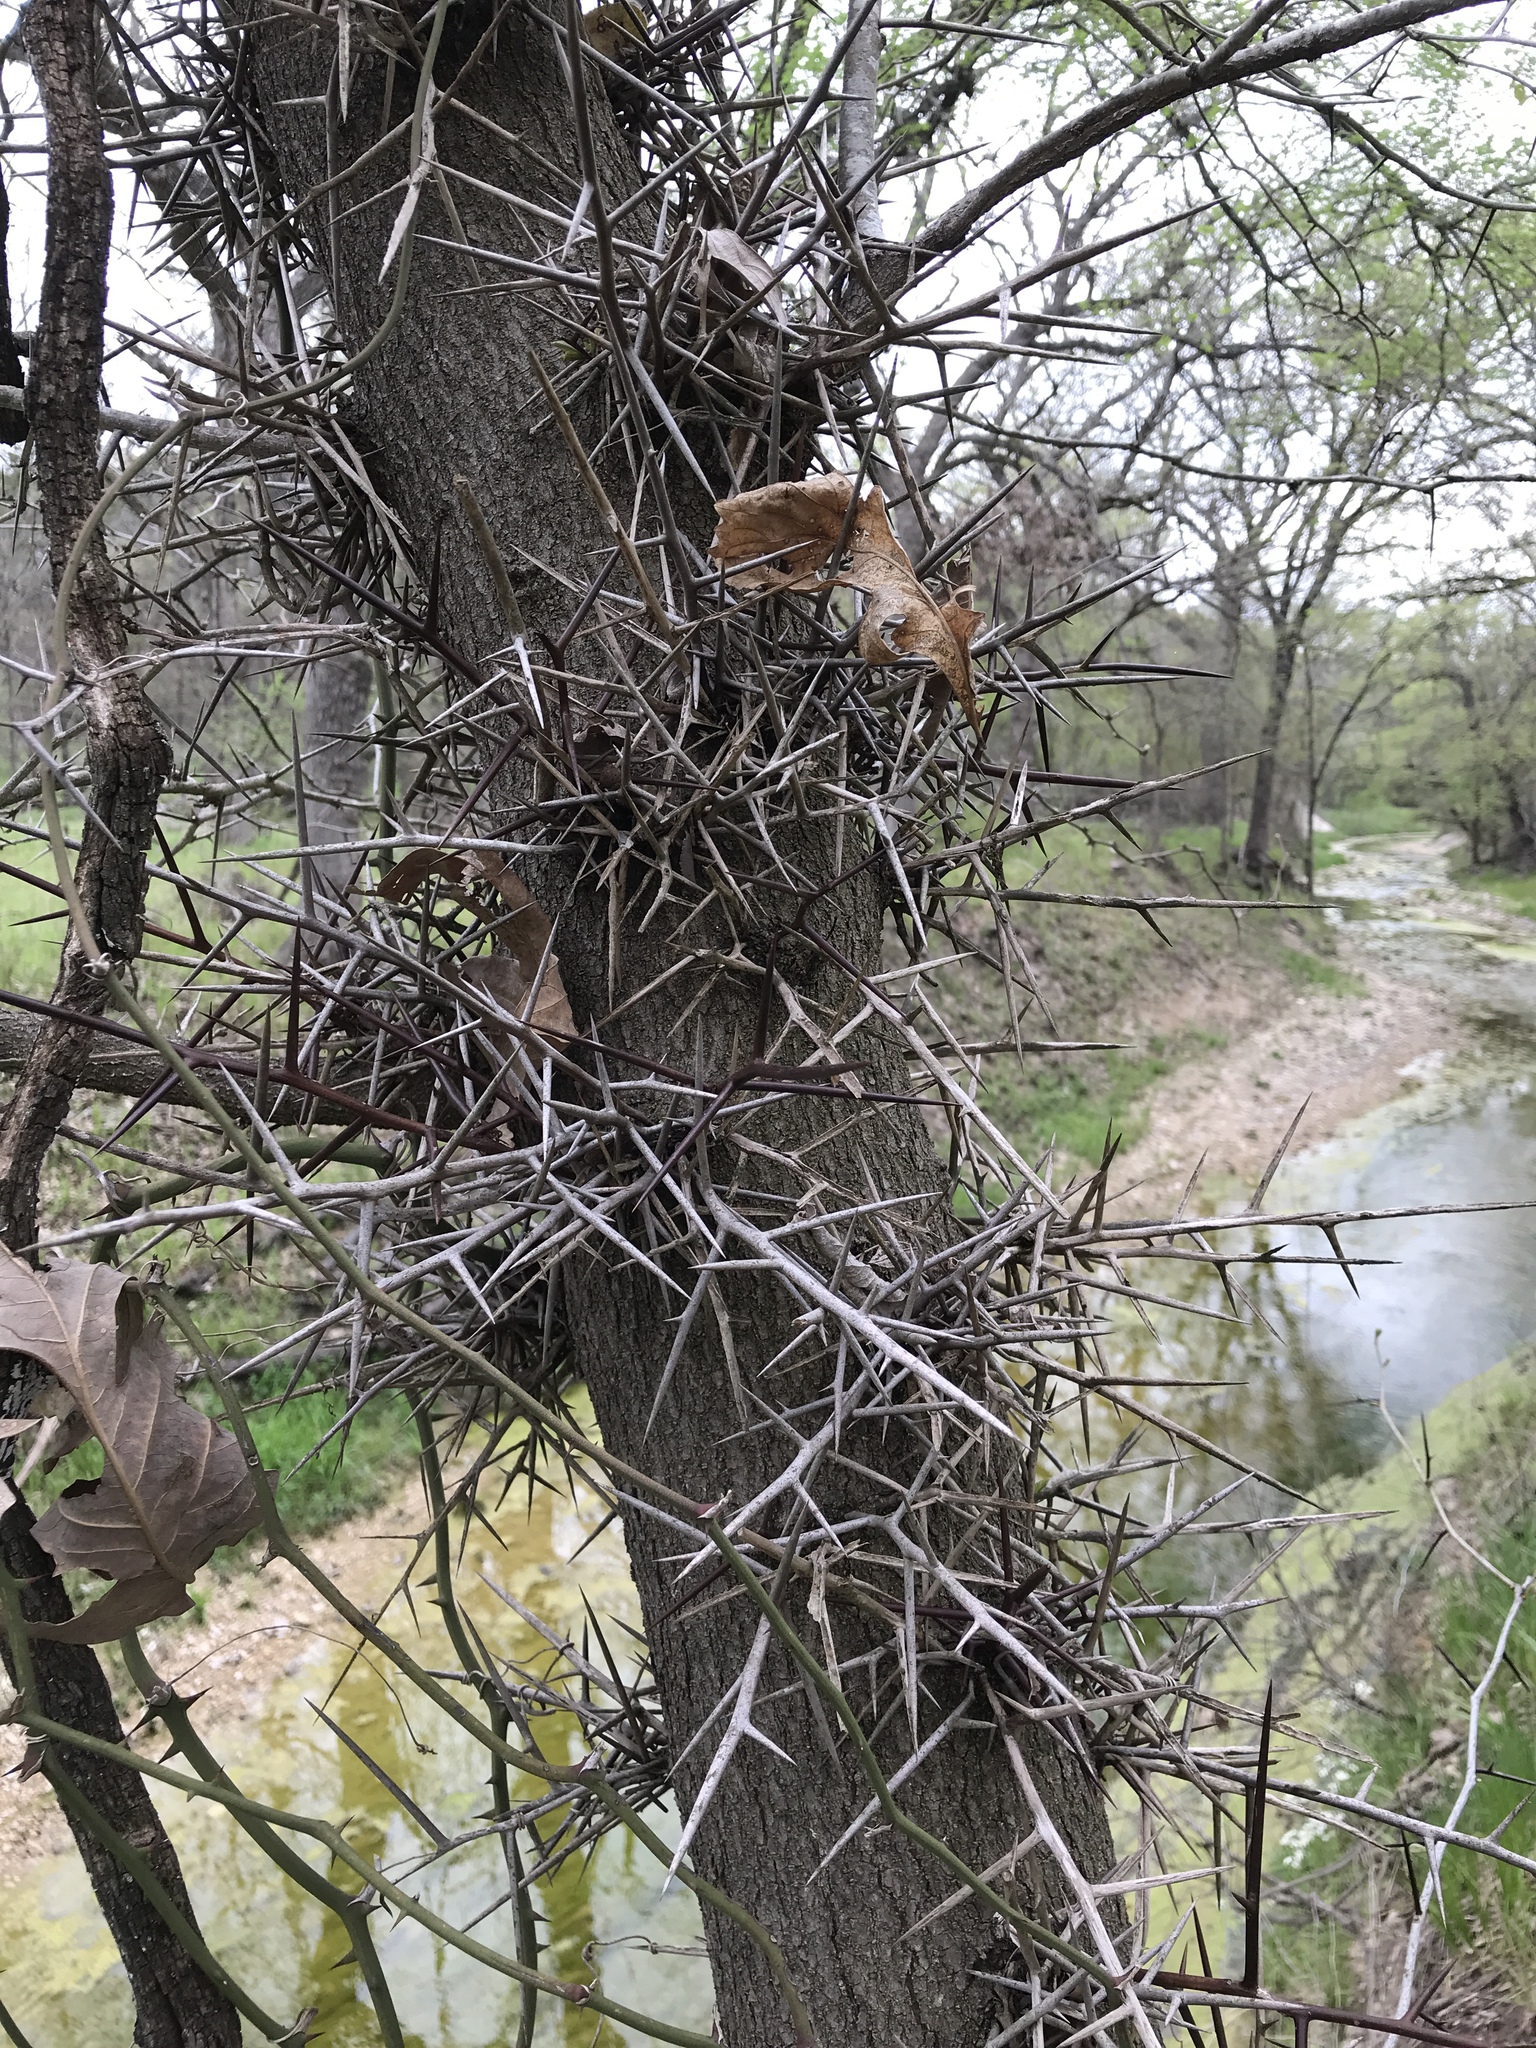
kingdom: Plantae
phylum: Tracheophyta
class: Magnoliopsida
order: Fabales
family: Fabaceae
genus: Gleditsia
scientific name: Gleditsia triacanthos
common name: Common honeylocust
